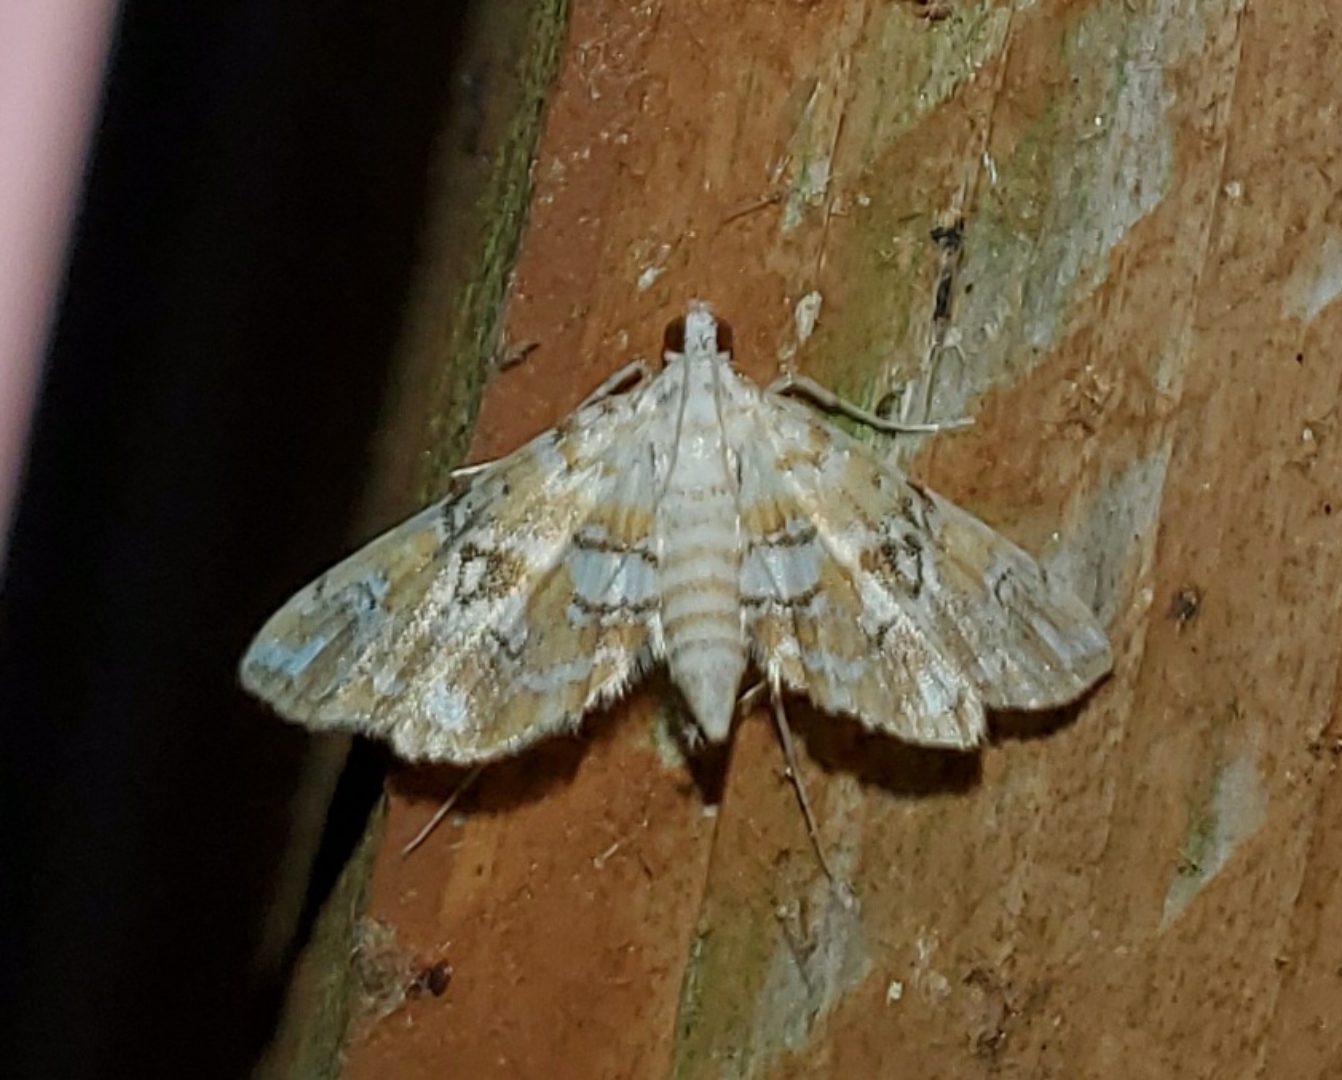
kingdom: Animalia
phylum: Arthropoda
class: Insecta
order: Lepidoptera
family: Crambidae
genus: Elophila
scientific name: Elophila icciusalis
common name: Pondside pyralid moth
